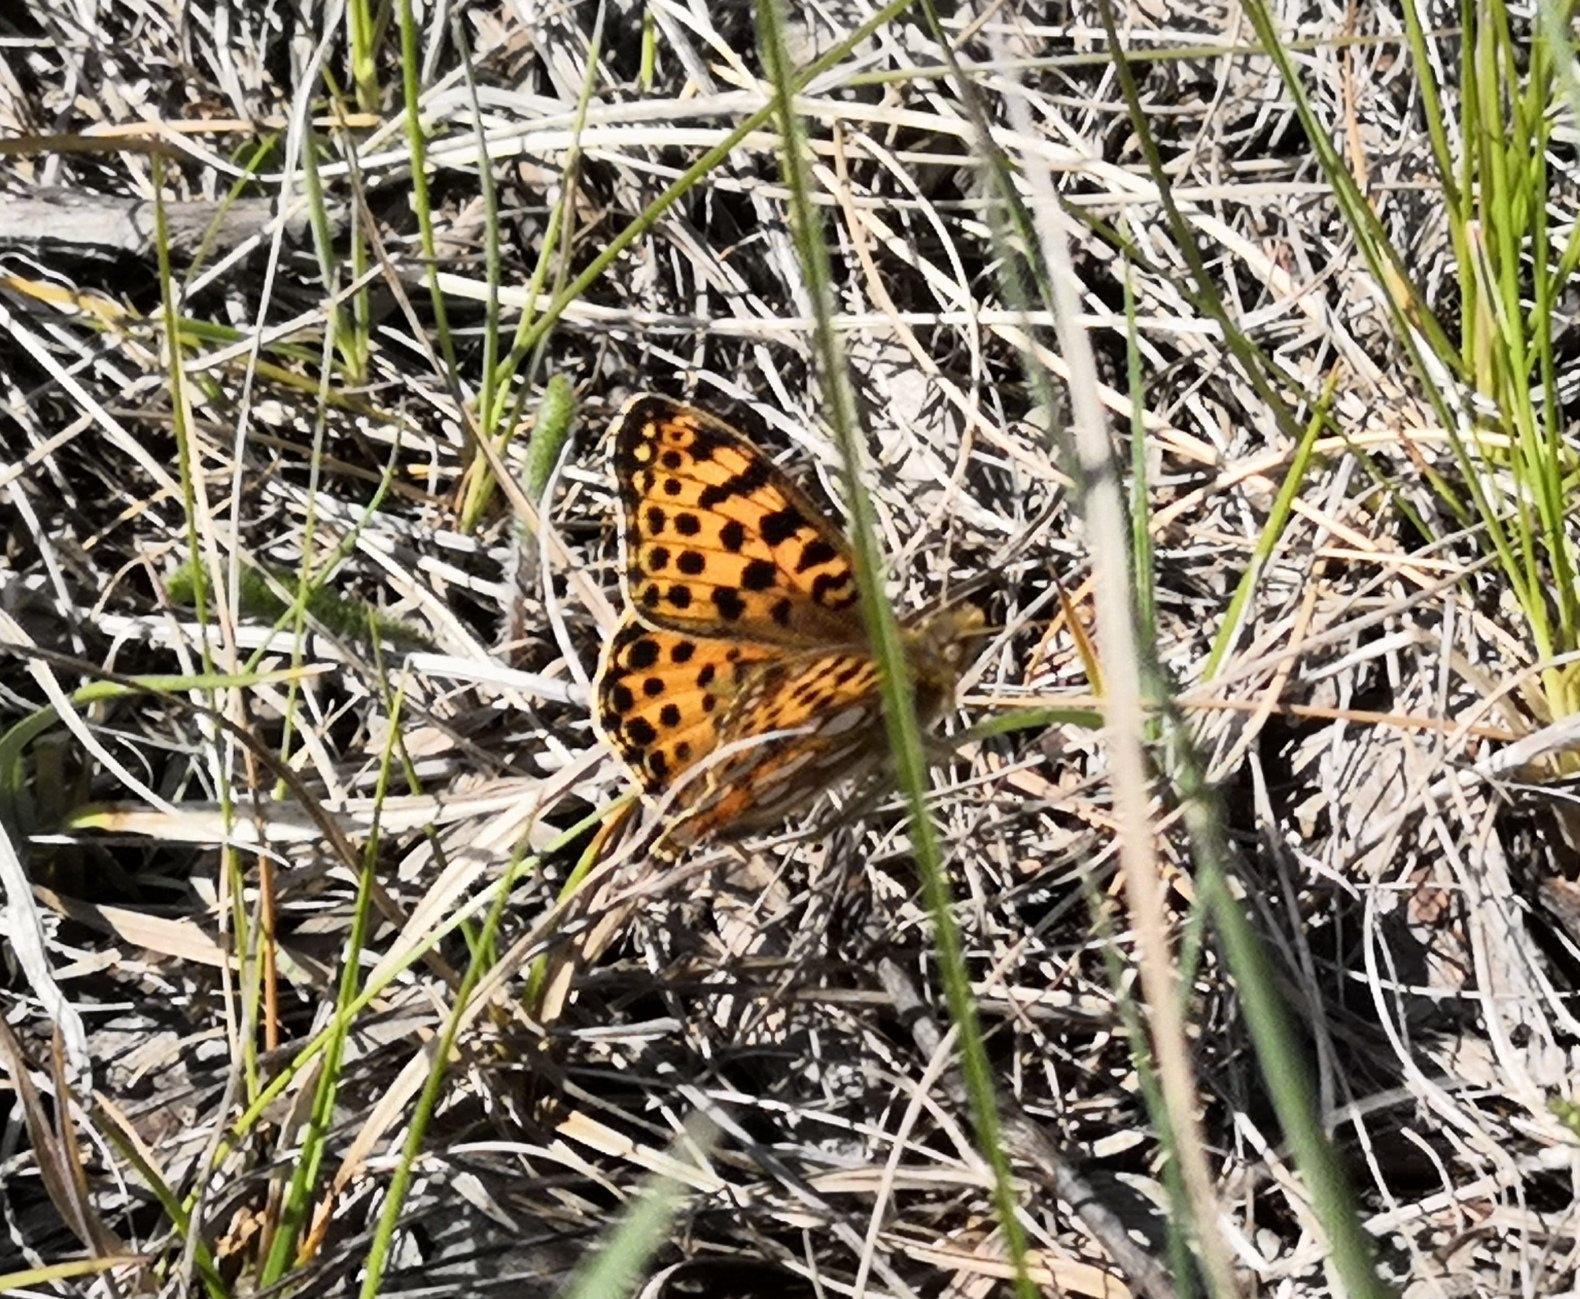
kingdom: Animalia
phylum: Arthropoda
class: Insecta
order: Lepidoptera
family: Nymphalidae
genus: Issoria
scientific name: Issoria lathonia
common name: Queen of spain fritillary
